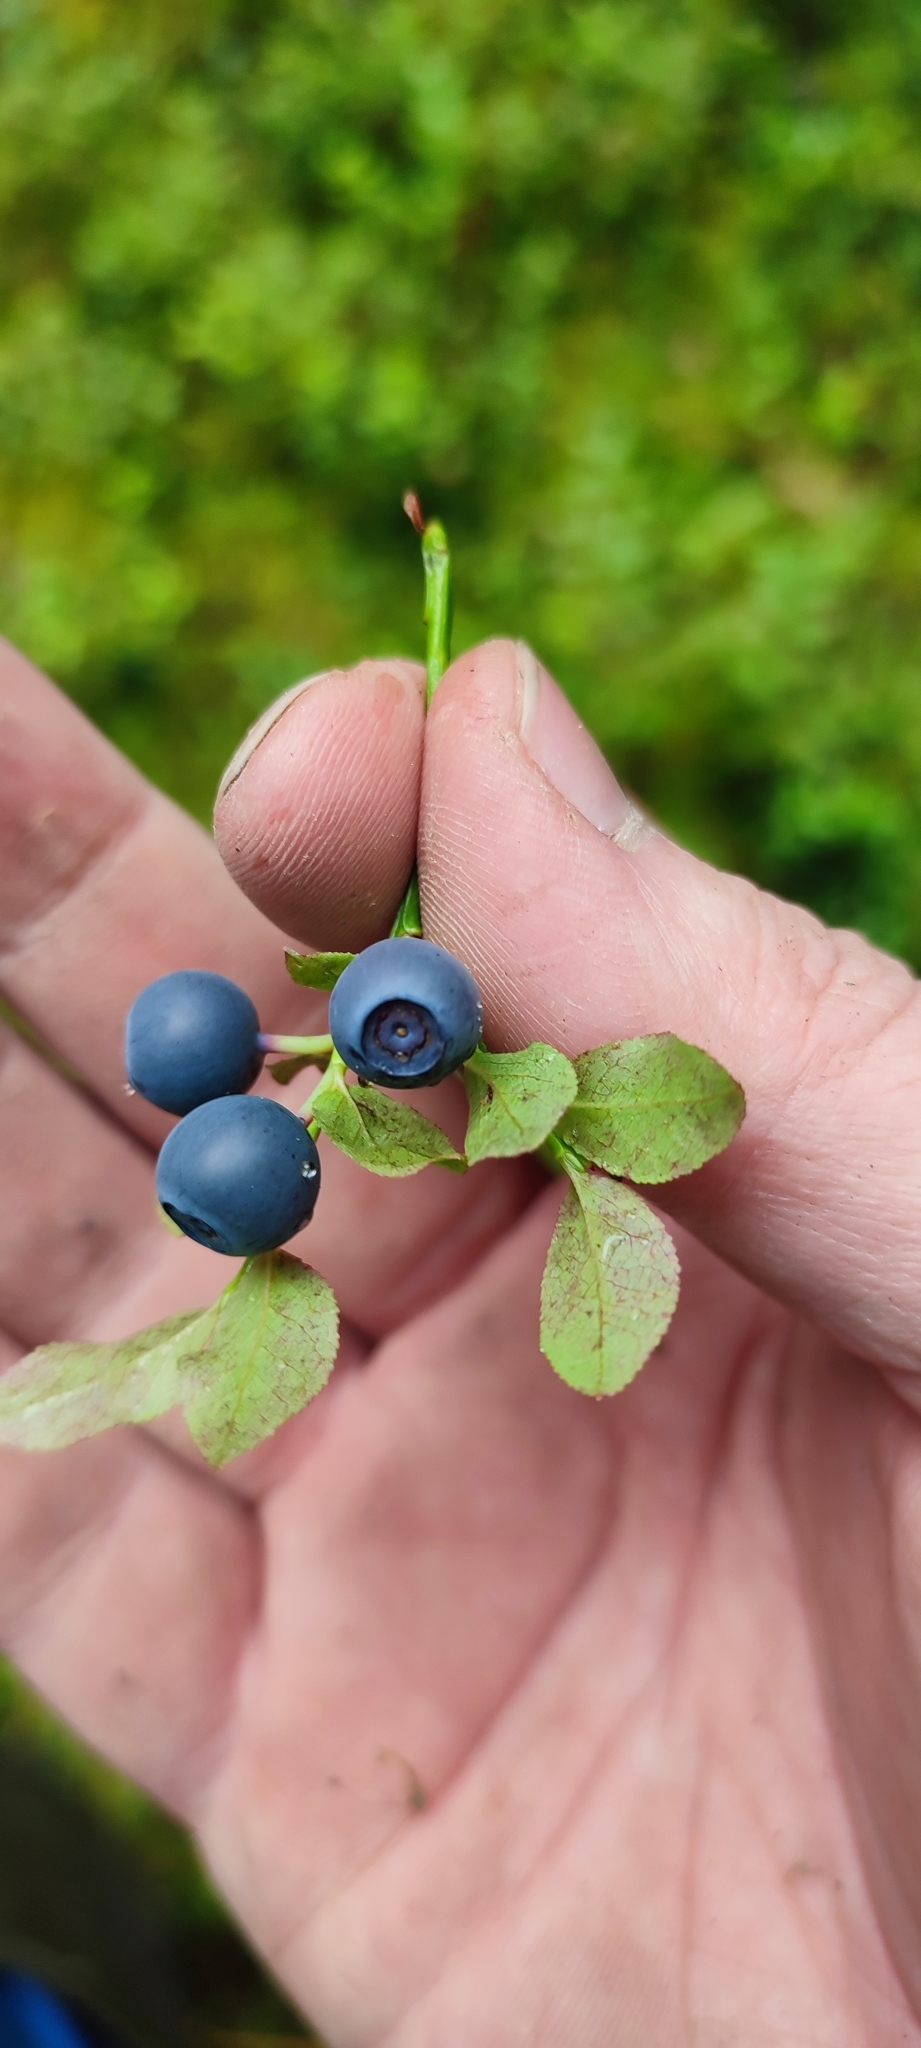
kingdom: Plantae
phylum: Tracheophyta
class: Magnoliopsida
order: Ericales
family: Ericaceae
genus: Vaccinium
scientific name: Vaccinium myrtillus
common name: Bilberry
